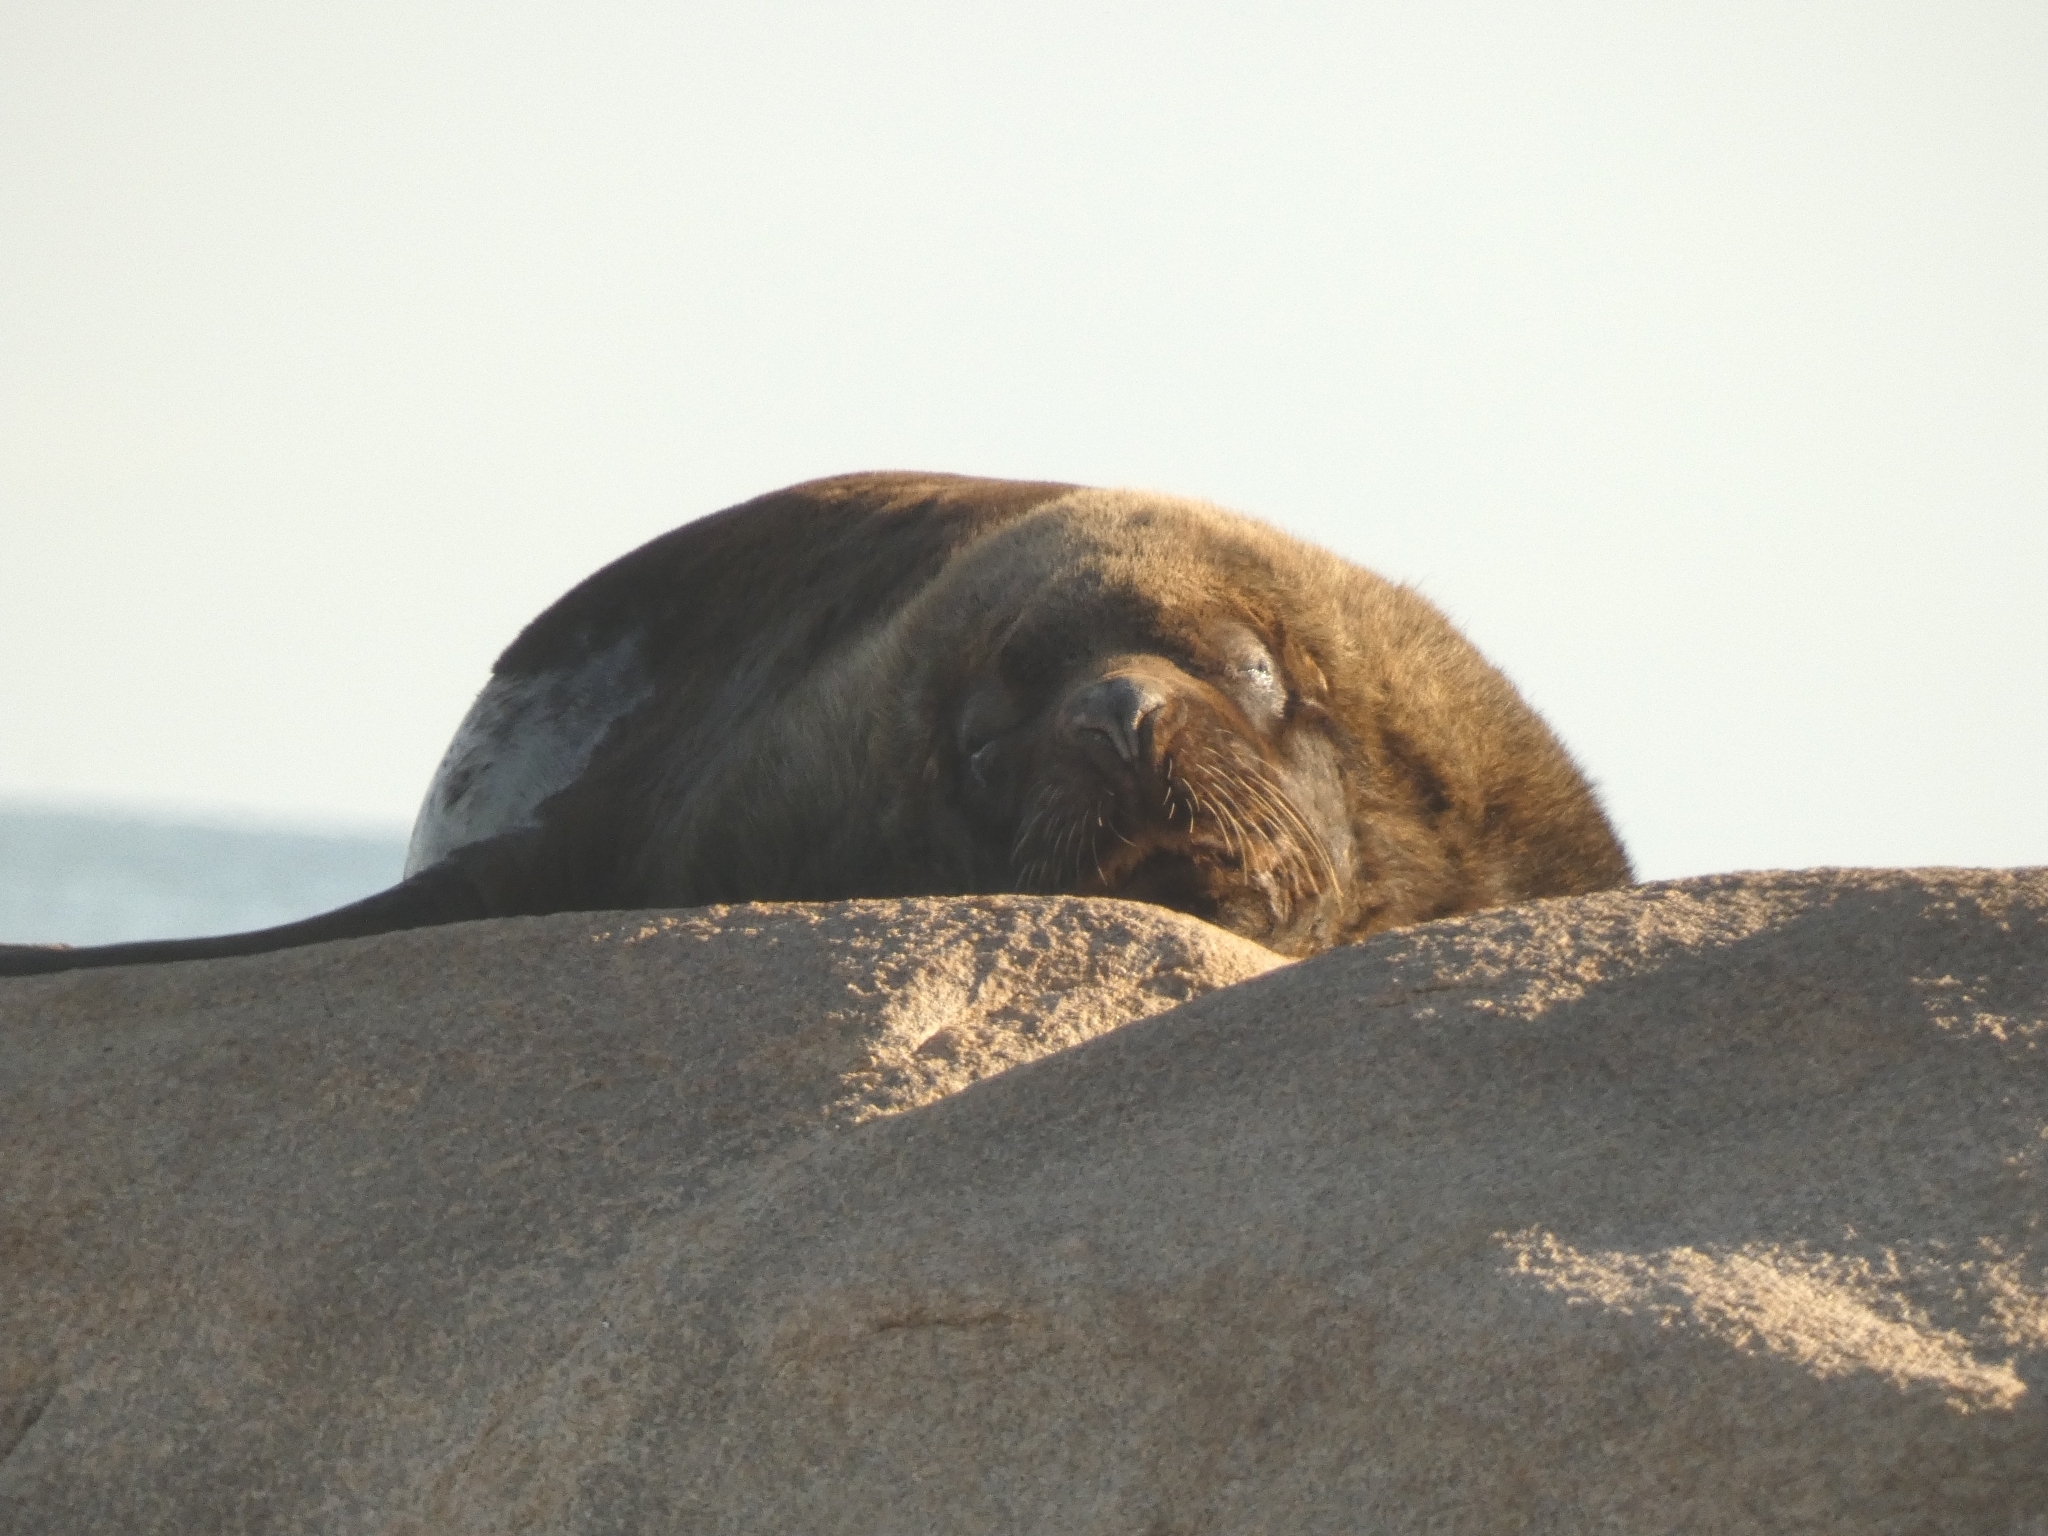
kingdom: Animalia
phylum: Chordata
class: Mammalia
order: Carnivora
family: Otariidae
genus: Otaria
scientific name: Otaria byronia
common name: South american sea lion
